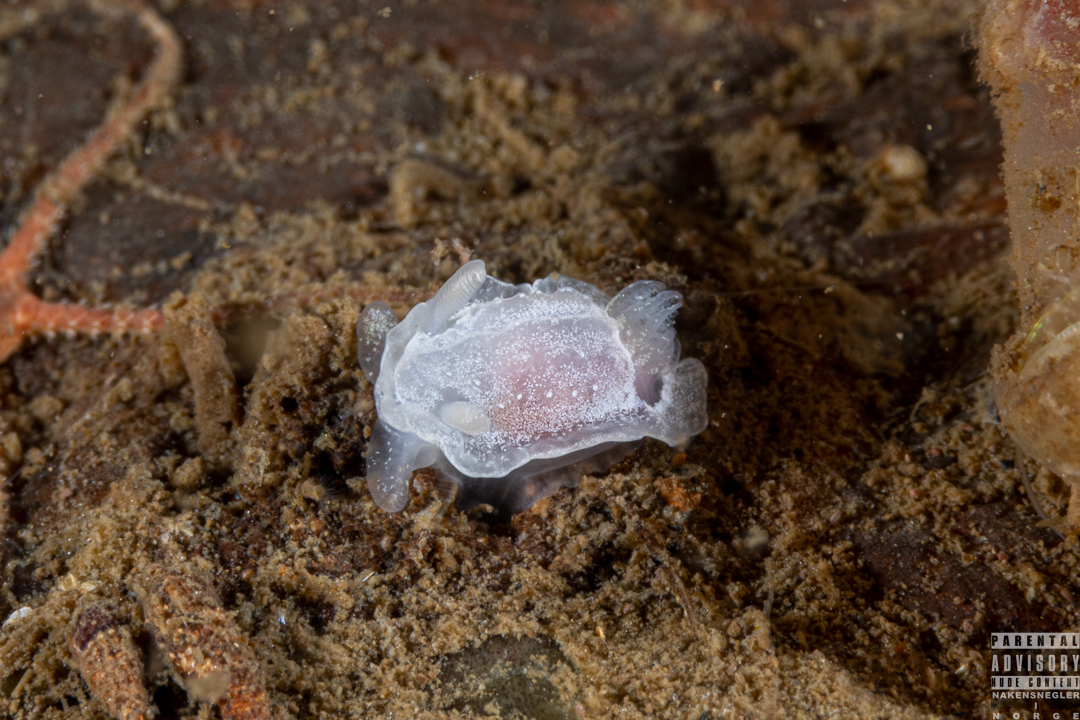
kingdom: Animalia
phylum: Mollusca
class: Gastropoda
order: Nudibranchia
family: Goniodorididae
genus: Okenia
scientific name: Okenia
